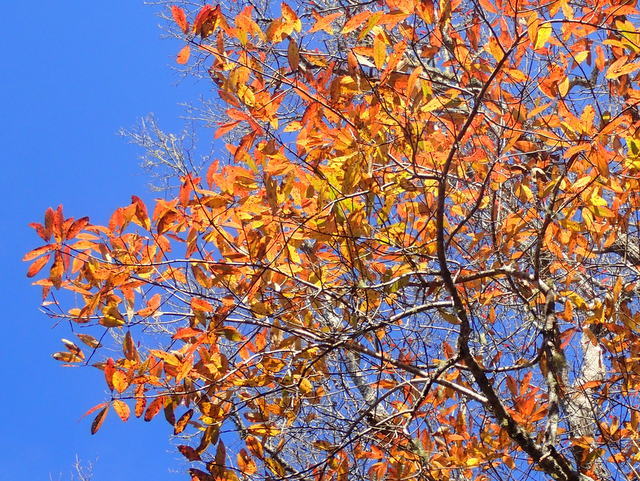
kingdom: Plantae
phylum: Tracheophyta
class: Magnoliopsida
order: Cornales
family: Nyssaceae
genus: Nyssa
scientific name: Nyssa ogeche
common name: Ogeechee tupelo
